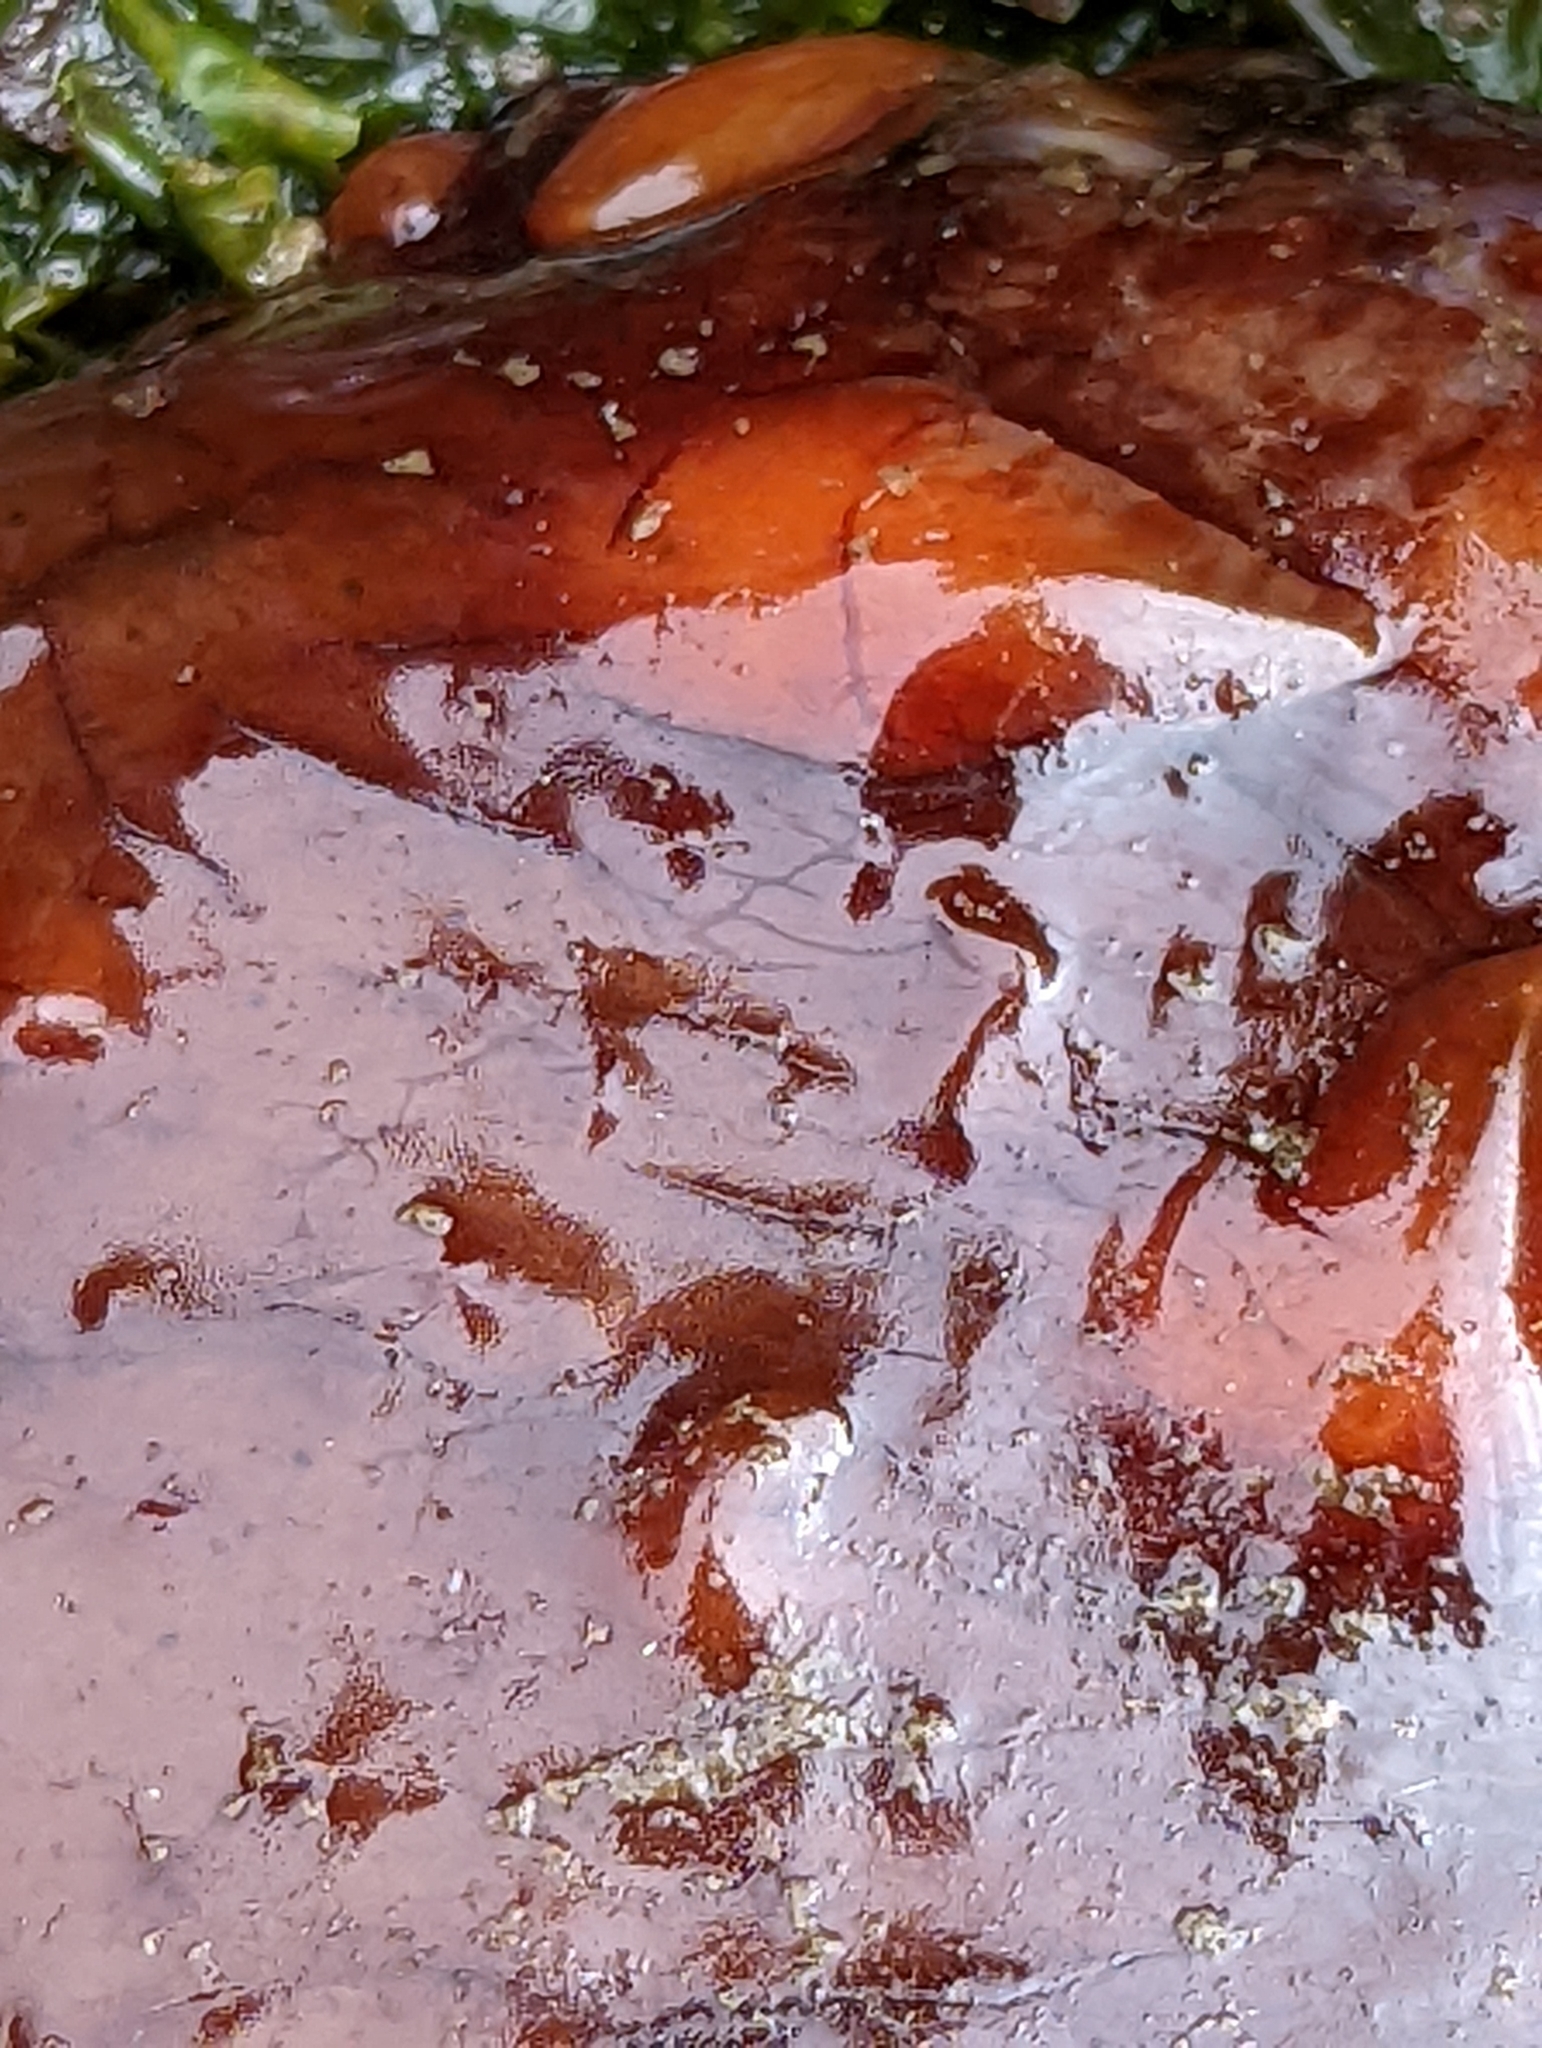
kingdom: Animalia
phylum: Echinodermata
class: Holothuroidea
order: Synallactida
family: Stichopodidae
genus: Apostichopus
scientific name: Apostichopus californicus
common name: California sea cucumber
